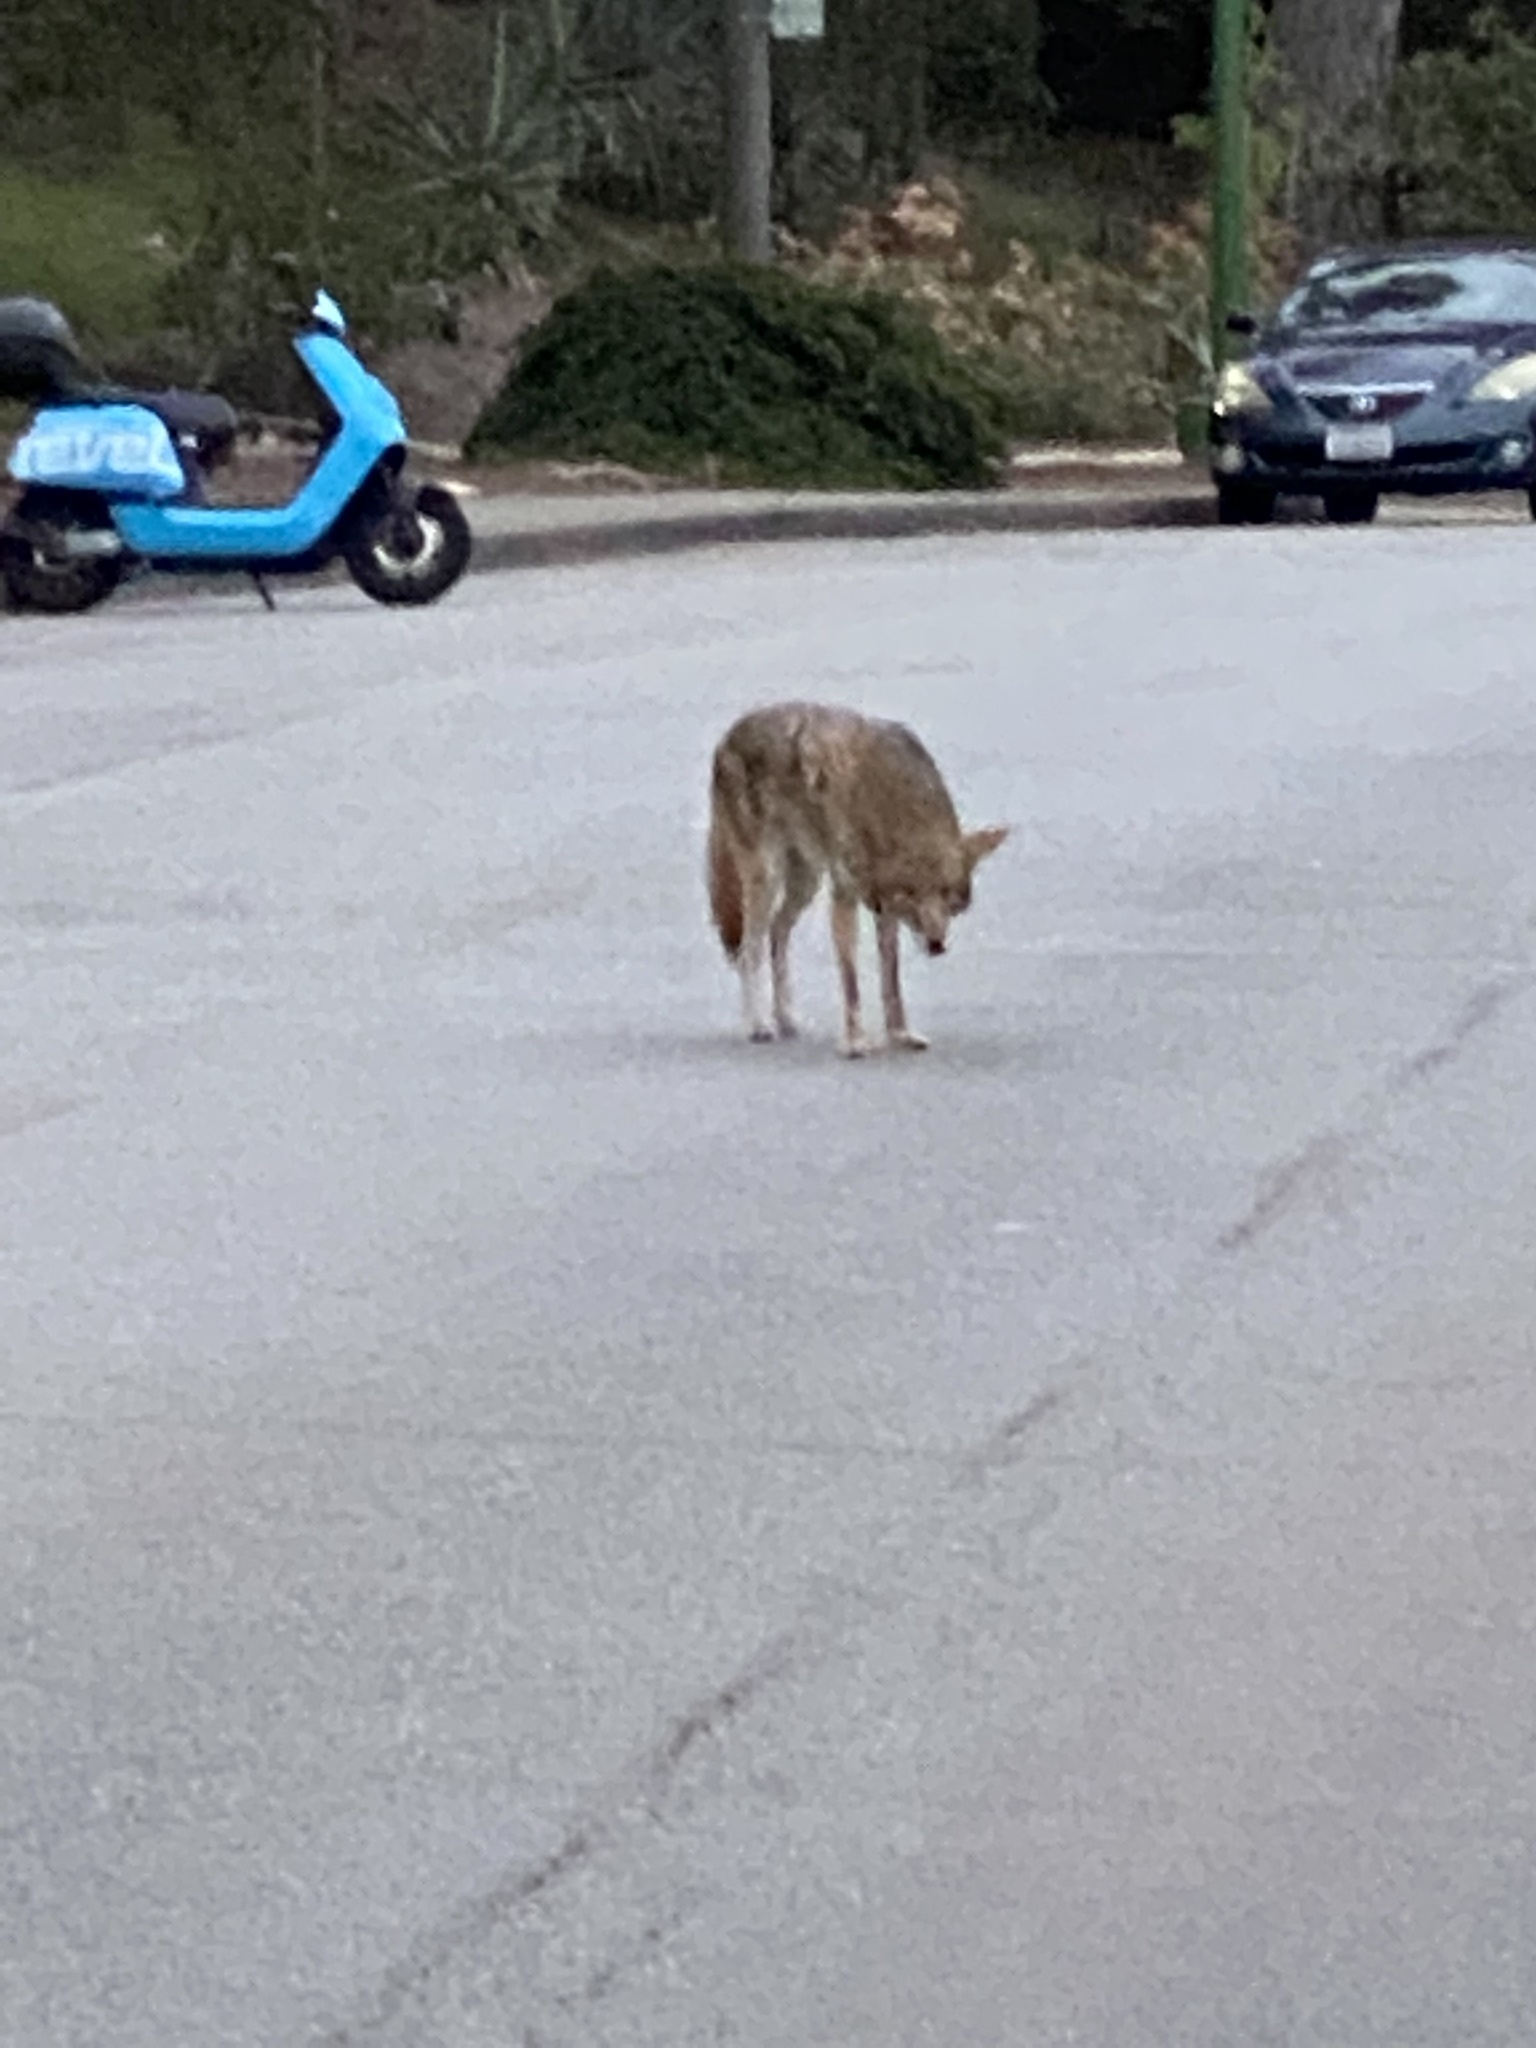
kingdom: Animalia
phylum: Chordata
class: Mammalia
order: Carnivora
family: Canidae
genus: Canis
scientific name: Canis latrans
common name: Coyote
